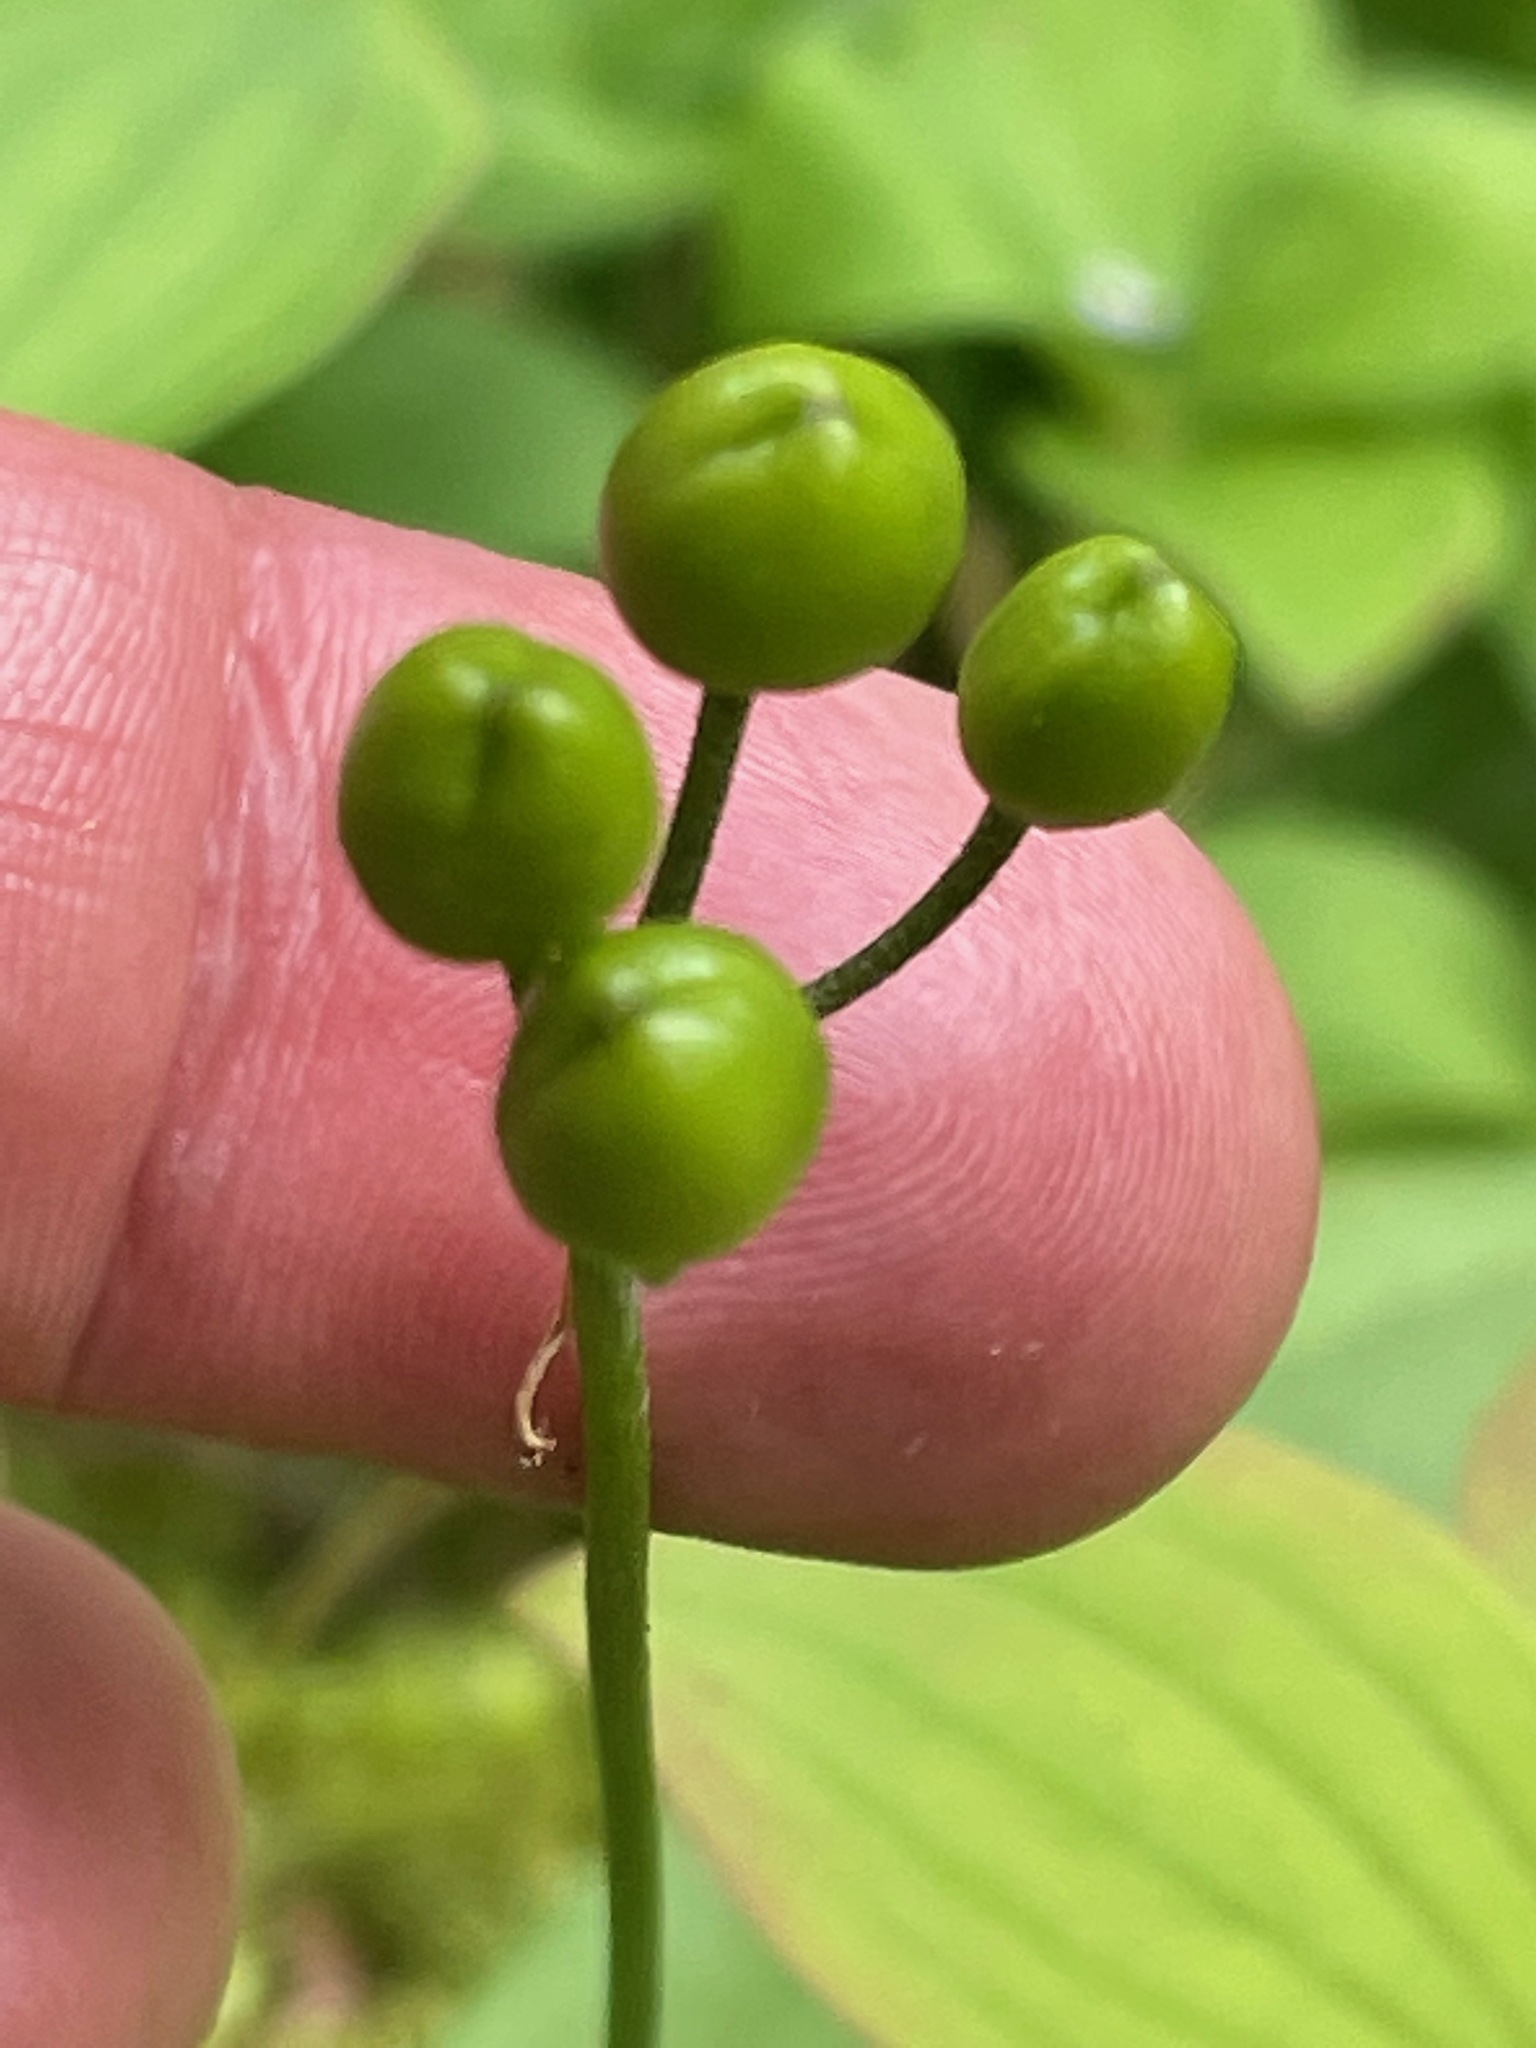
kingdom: Plantae
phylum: Tracheophyta
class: Liliopsida
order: Liliales
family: Liliaceae
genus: Clintonia
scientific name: Clintonia borealis
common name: Yellow clintonia
